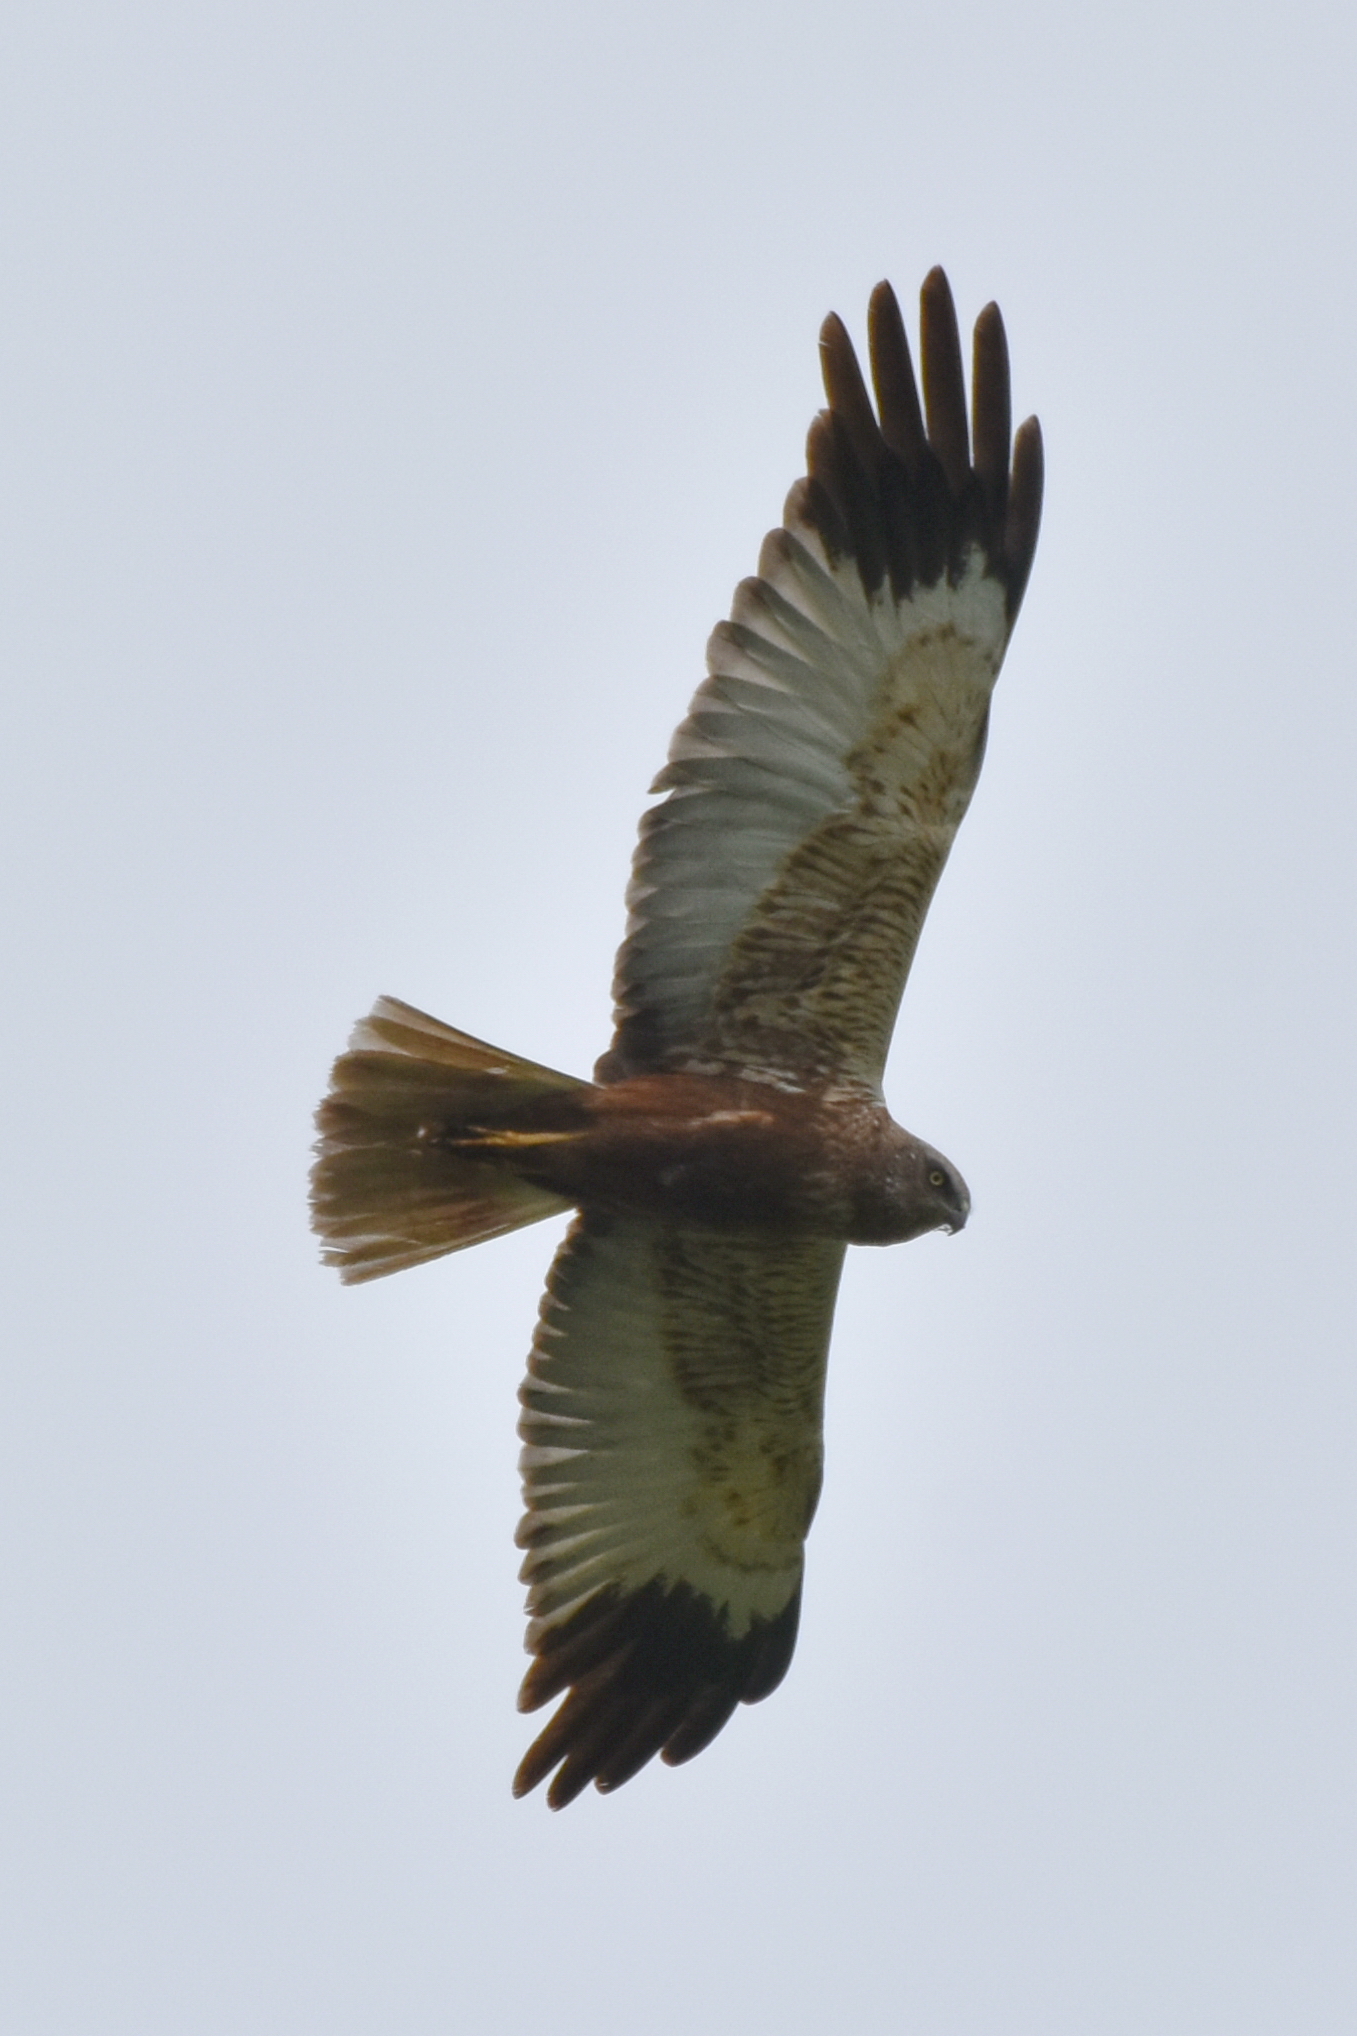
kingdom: Animalia
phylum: Chordata
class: Aves
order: Accipitriformes
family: Accipitridae
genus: Circus
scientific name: Circus aeruginosus
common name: Western marsh harrier
